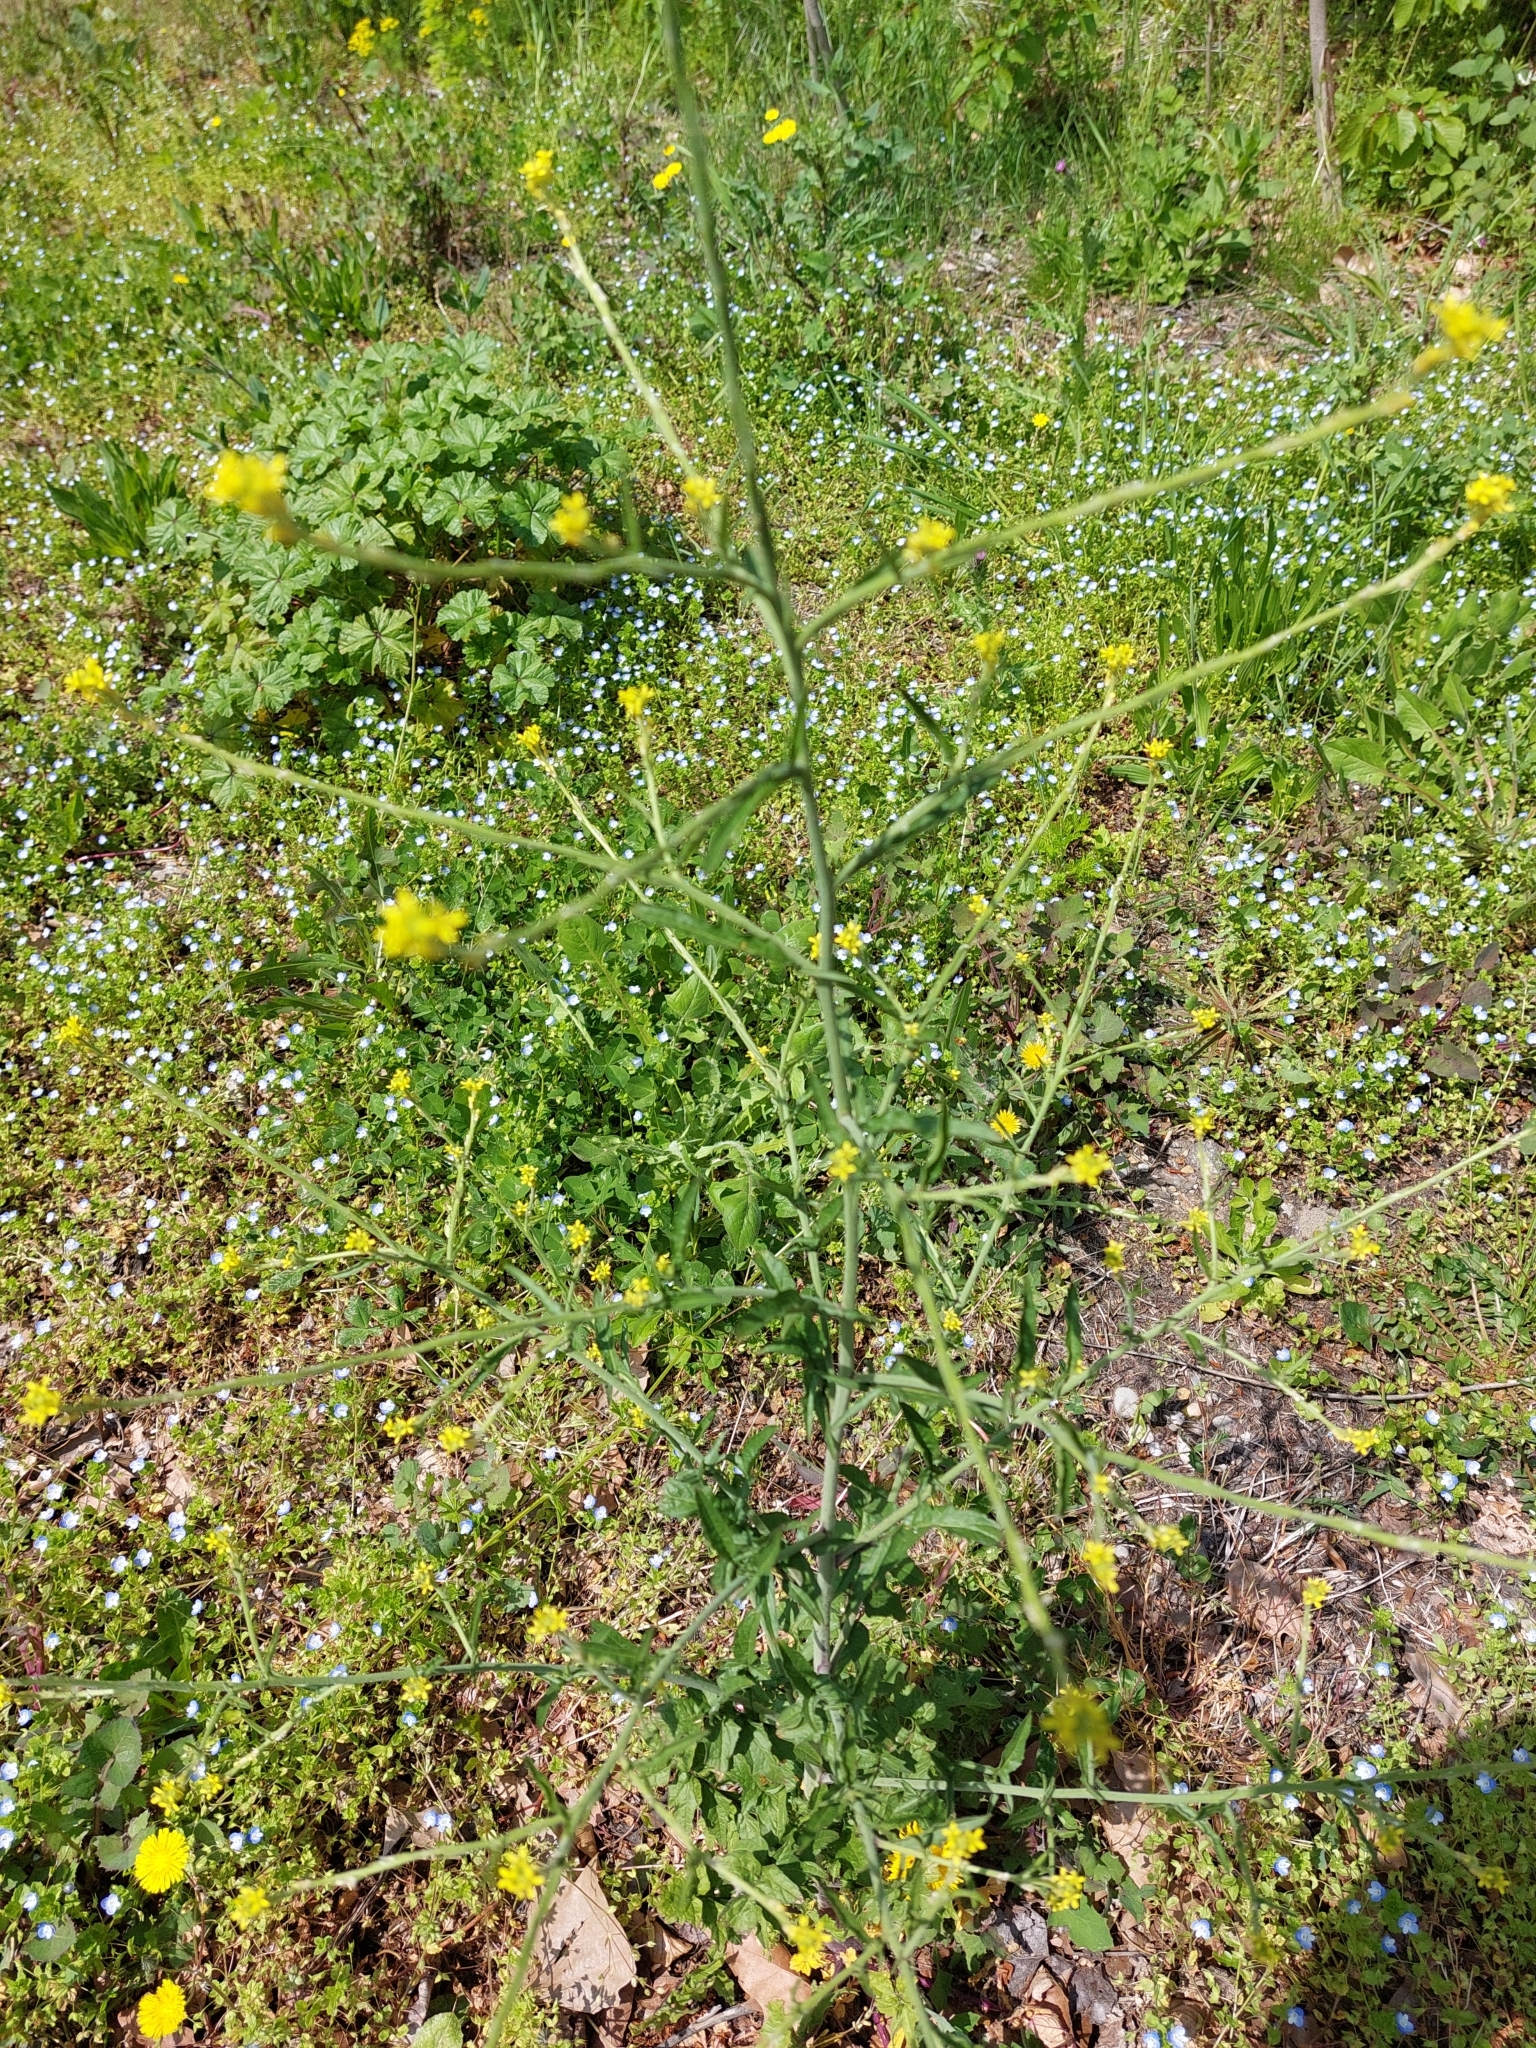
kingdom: Plantae
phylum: Tracheophyta
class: Magnoliopsida
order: Brassicales
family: Brassicaceae
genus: Sisymbrium
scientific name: Sisymbrium officinale
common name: Hedge mustard
